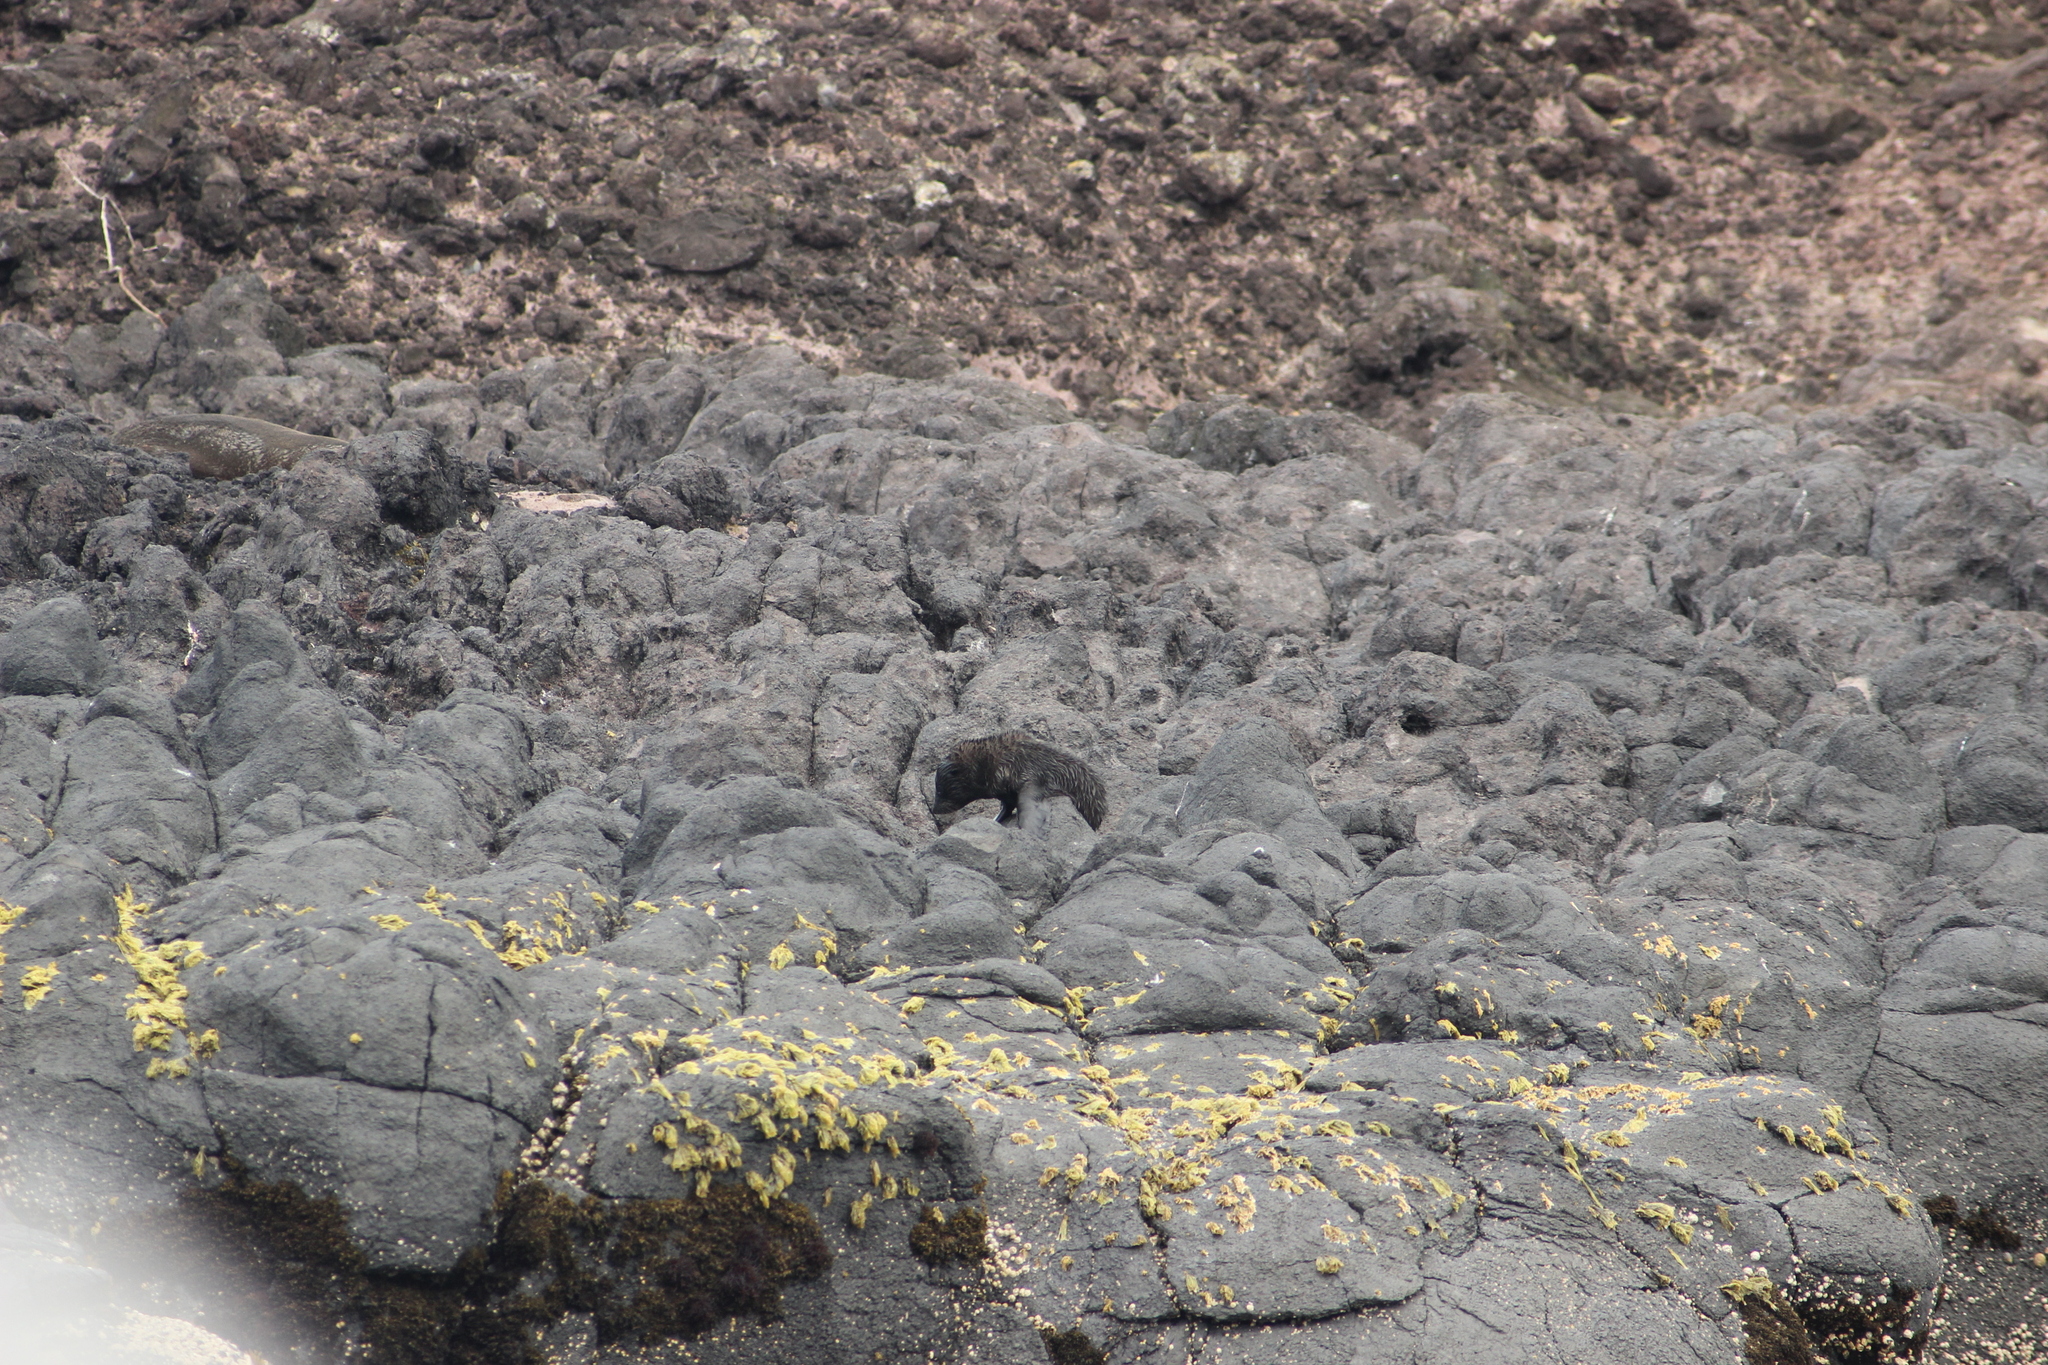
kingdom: Animalia
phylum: Chordata
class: Mammalia
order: Carnivora
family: Otariidae
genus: Arctocephalus
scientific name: Arctocephalus forsteri
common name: New zealand fur seal
